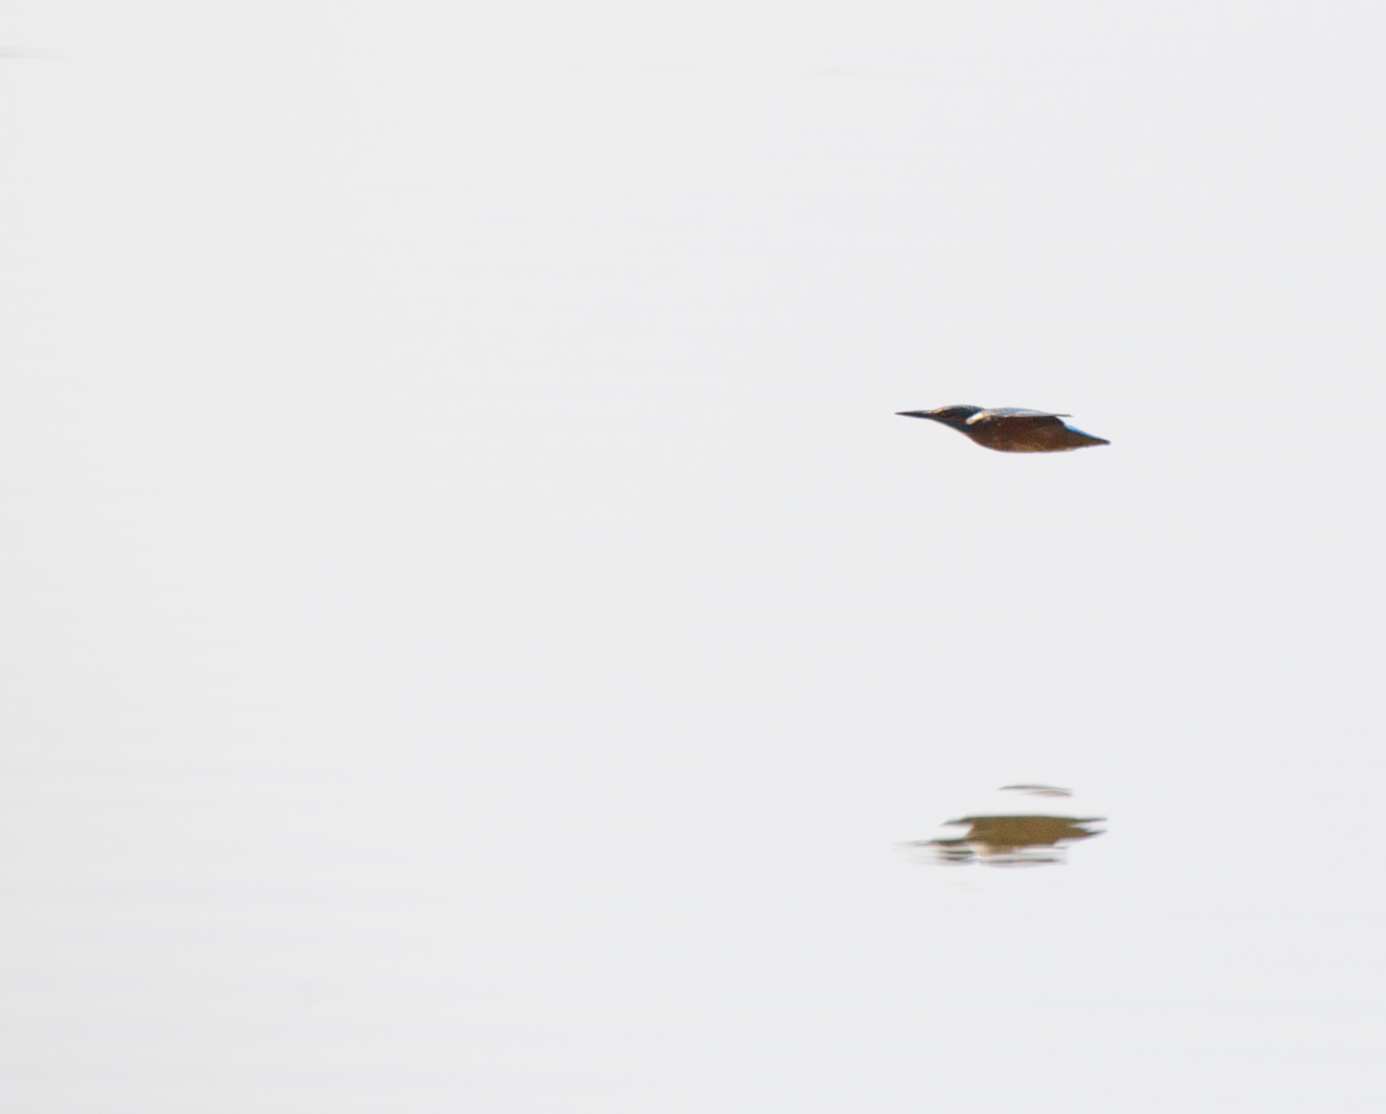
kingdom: Animalia
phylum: Chordata
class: Aves
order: Coraciiformes
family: Alcedinidae
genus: Alcedo
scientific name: Alcedo atthis
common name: Common kingfisher
